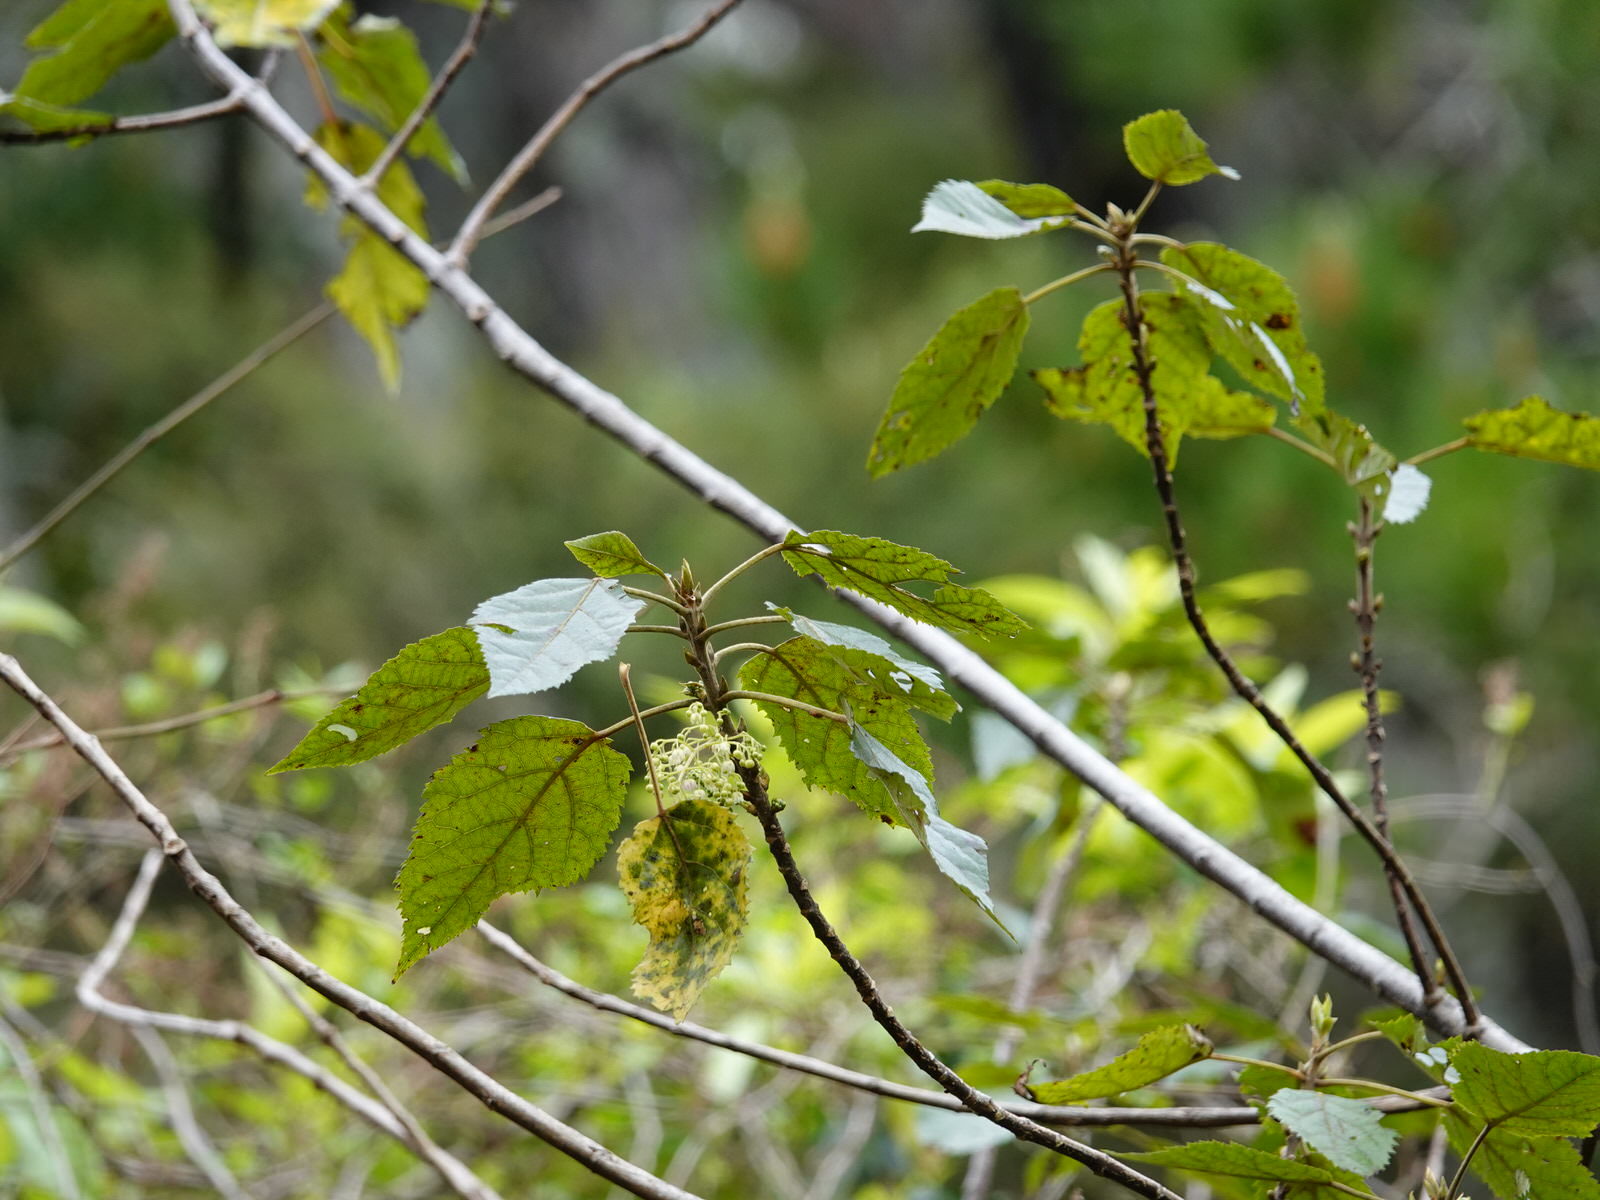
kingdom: Plantae
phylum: Tracheophyta
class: Magnoliopsida
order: Oxalidales
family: Elaeocarpaceae
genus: Aristotelia
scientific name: Aristotelia serrata
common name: New zealand wineberry
